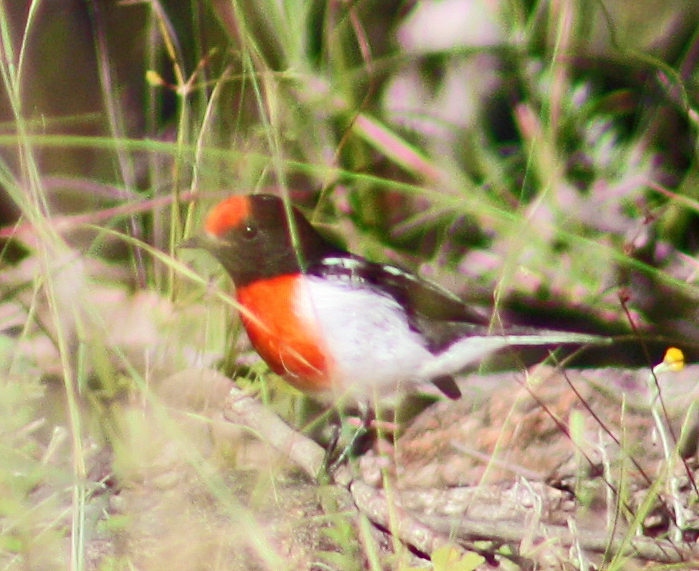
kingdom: Animalia
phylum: Chordata
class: Aves
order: Passeriformes
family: Petroicidae
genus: Petroica
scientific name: Petroica goodenovii
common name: Red-capped robin
